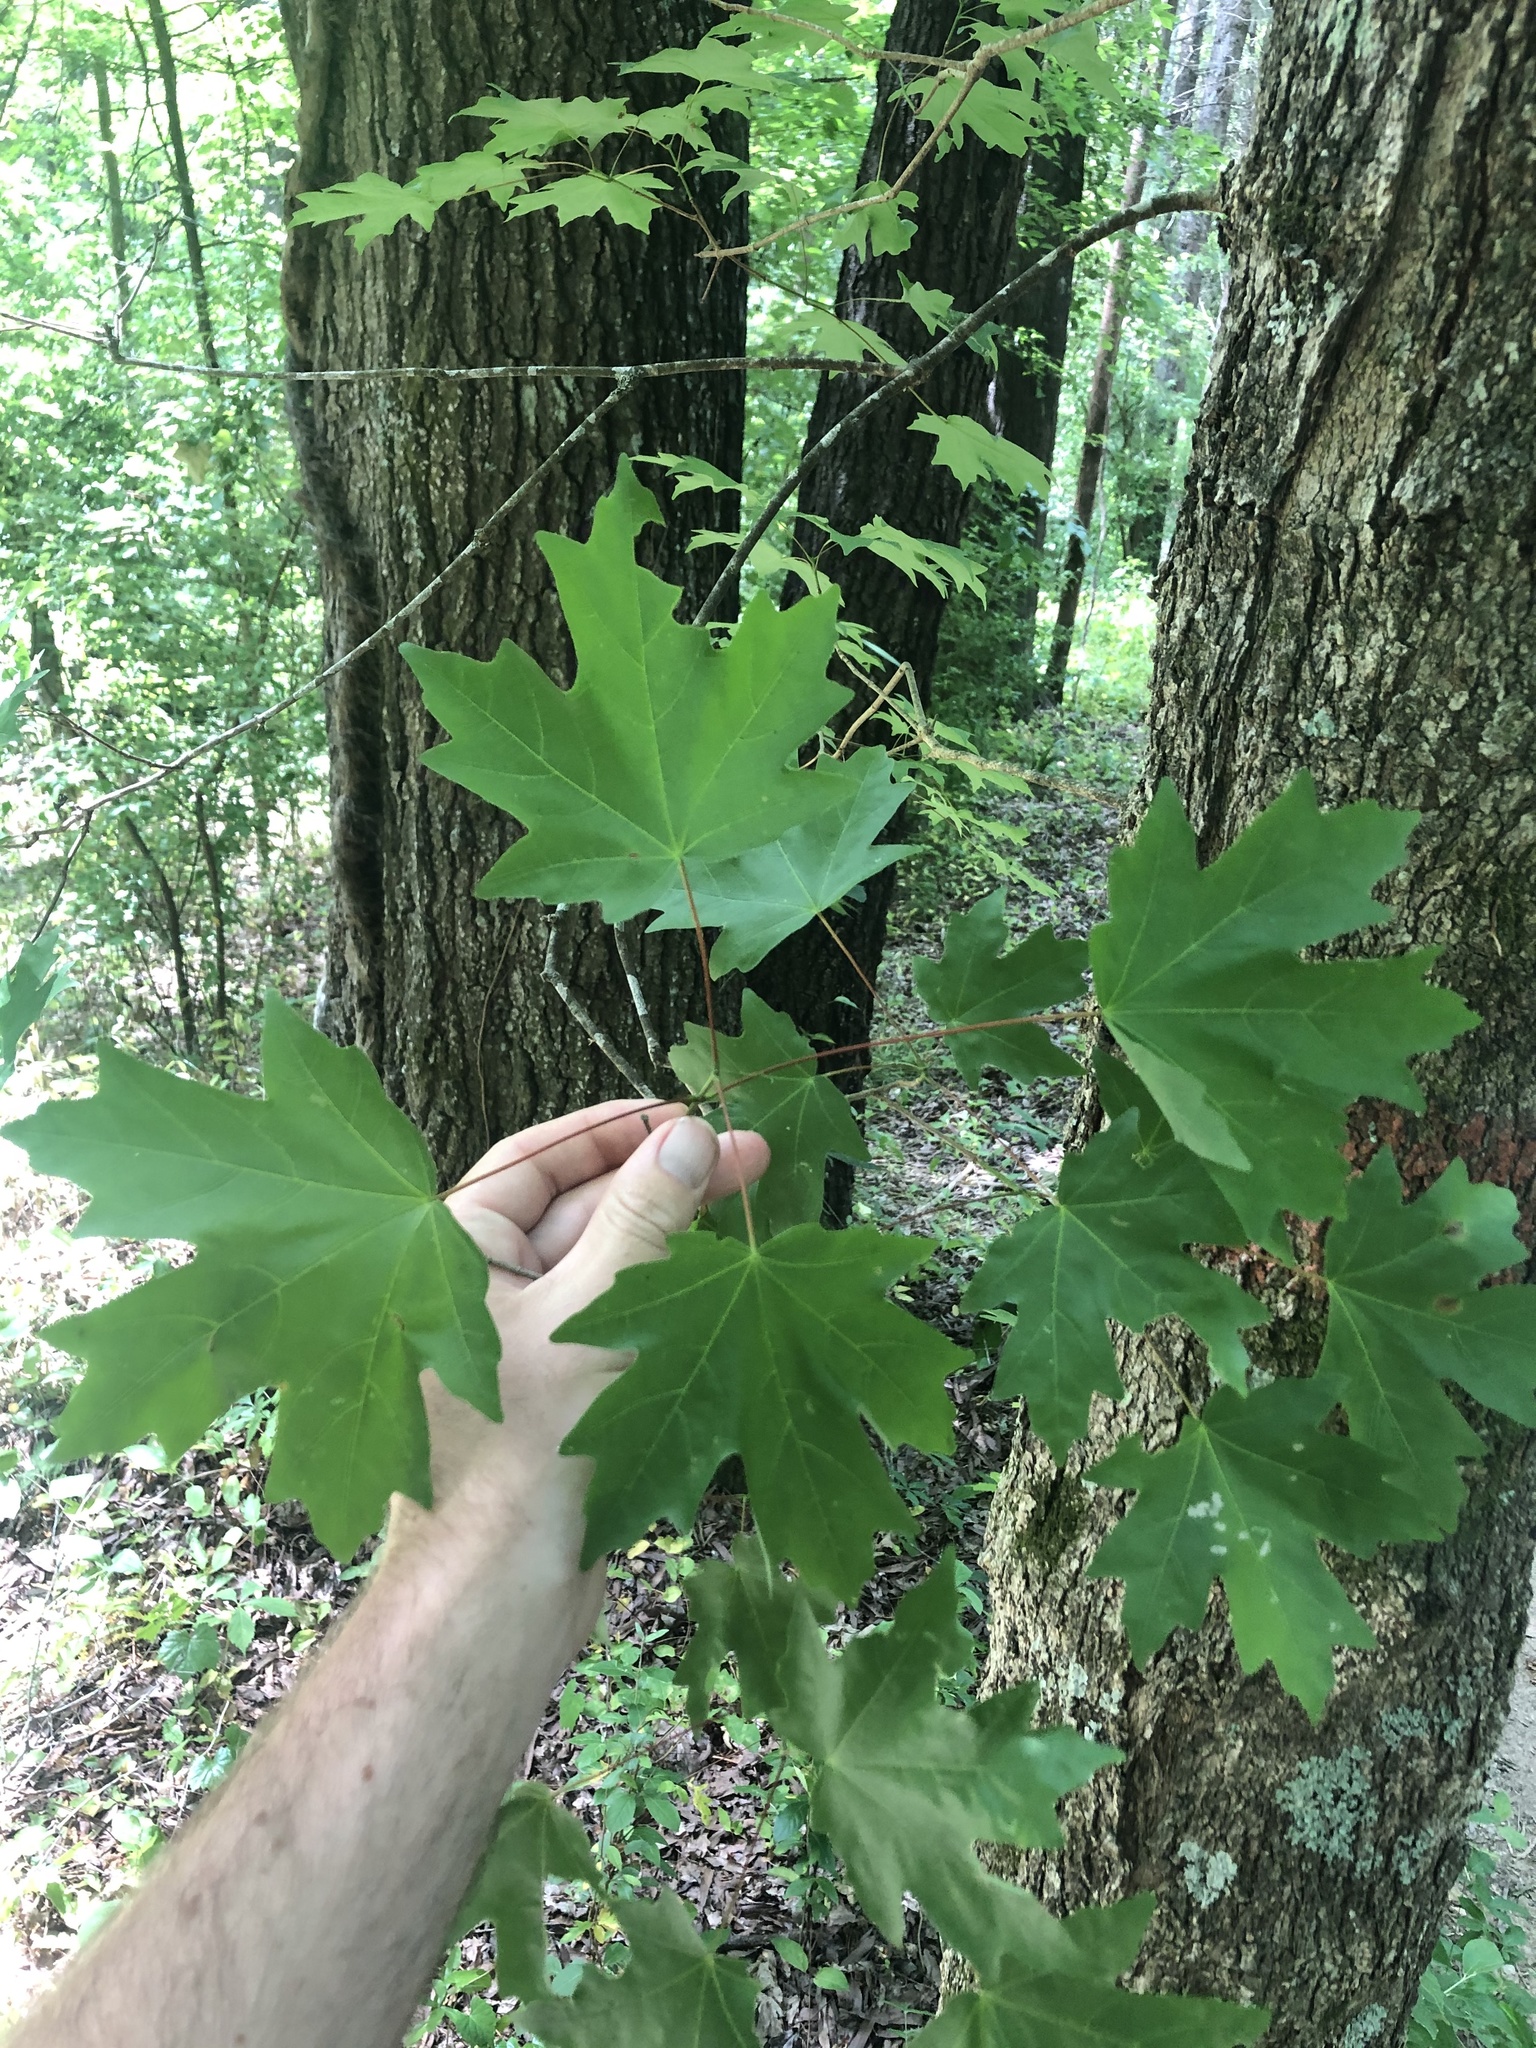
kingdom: Plantae
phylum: Tracheophyta
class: Magnoliopsida
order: Sapindales
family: Sapindaceae
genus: Acer
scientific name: Acer floridanum
